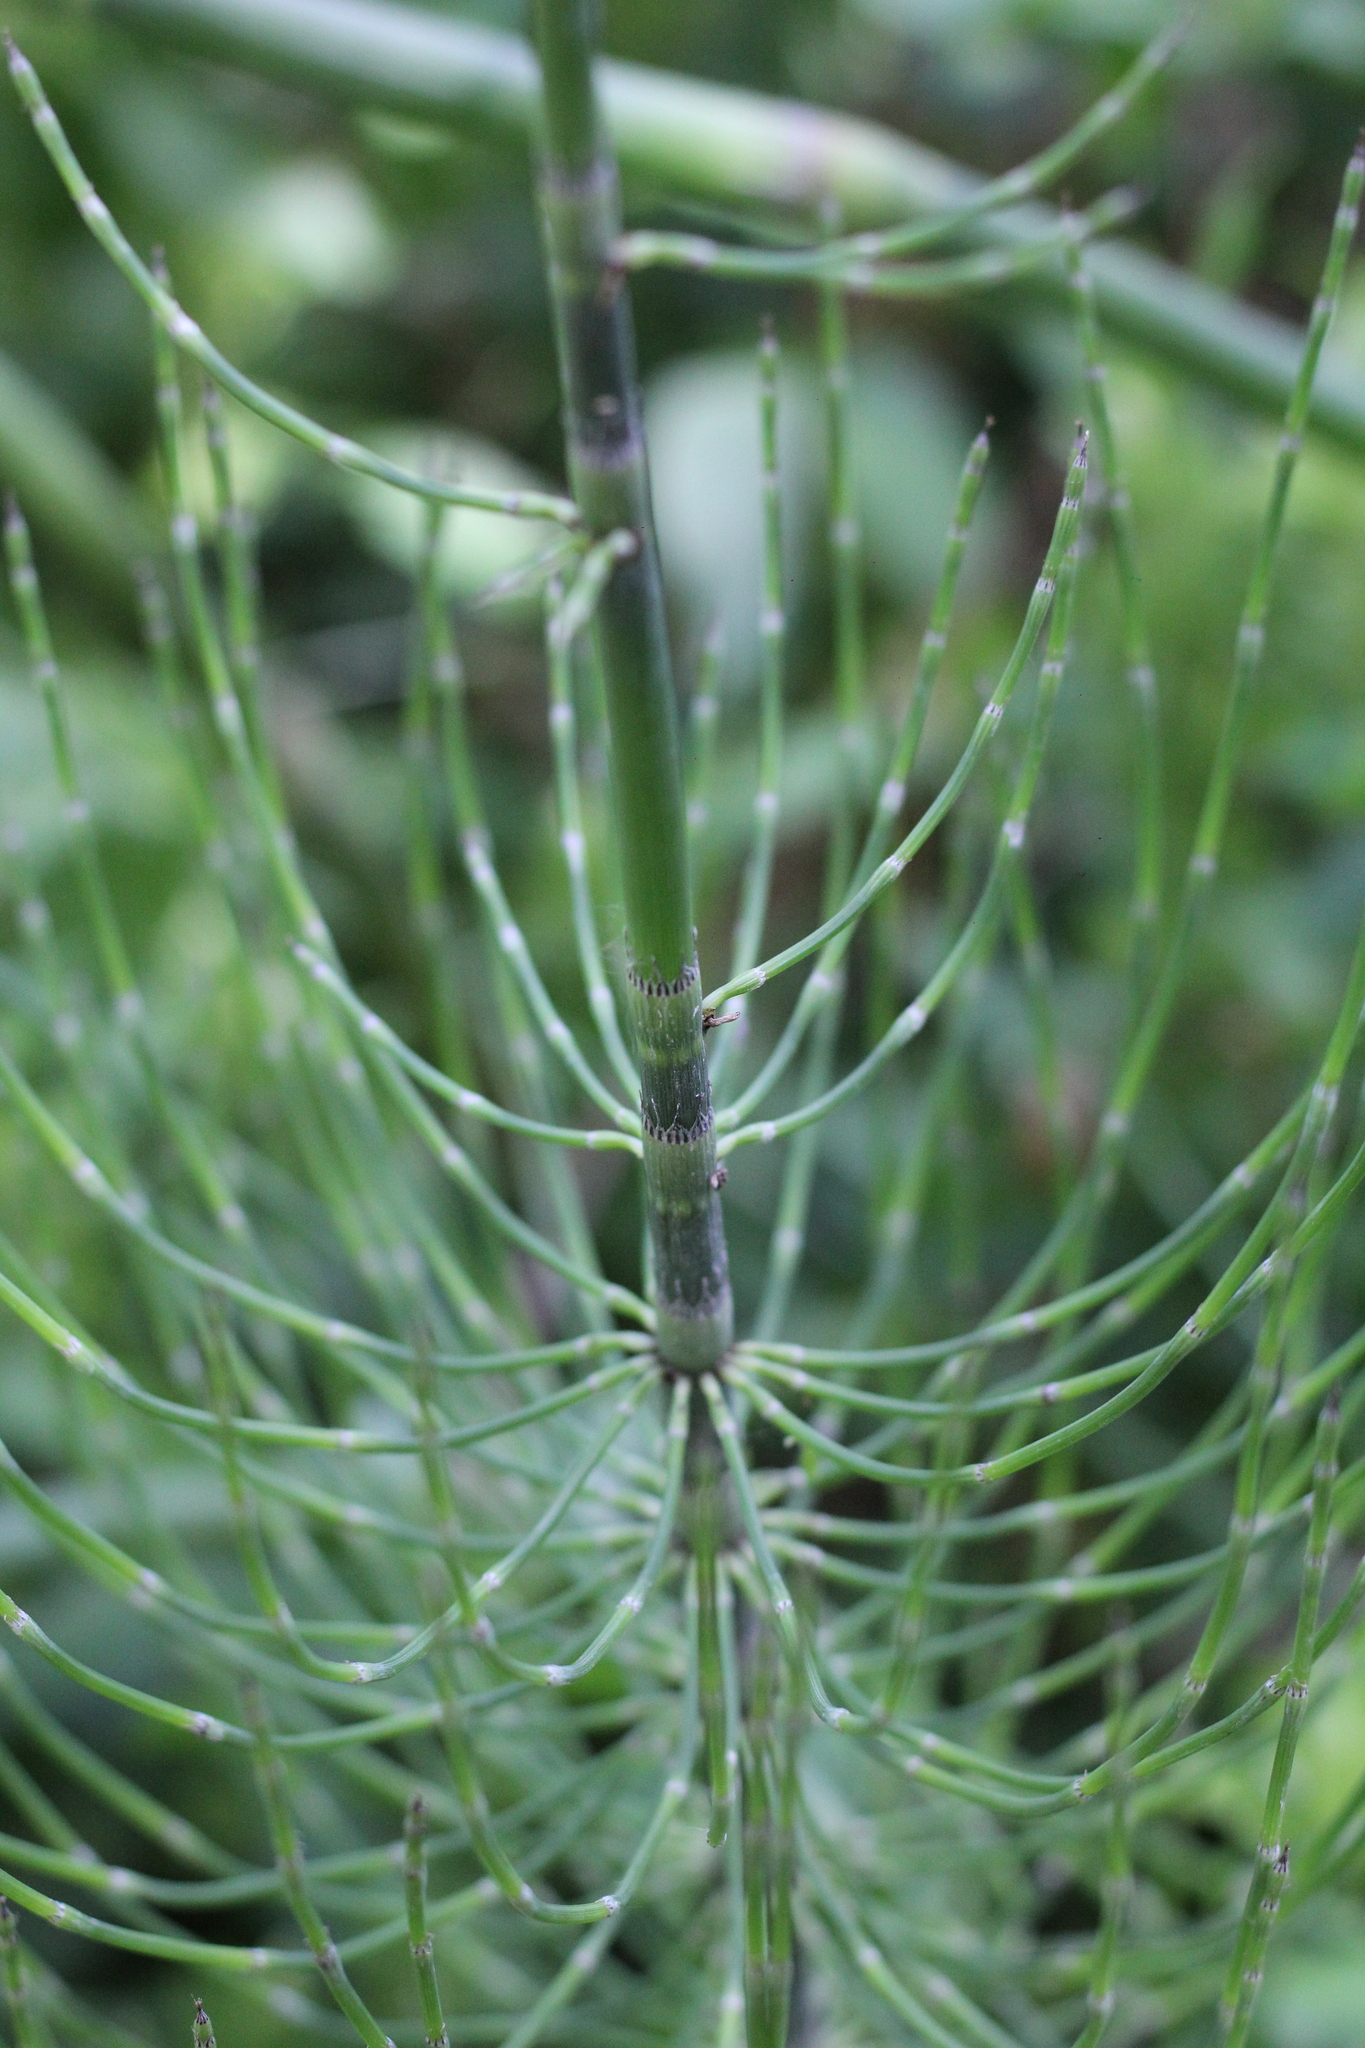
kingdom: Plantae
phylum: Tracheophyta
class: Polypodiopsida
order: Equisetales
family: Equisetaceae
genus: Equisetum
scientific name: Equisetum giganteum
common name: Giant horsetail
